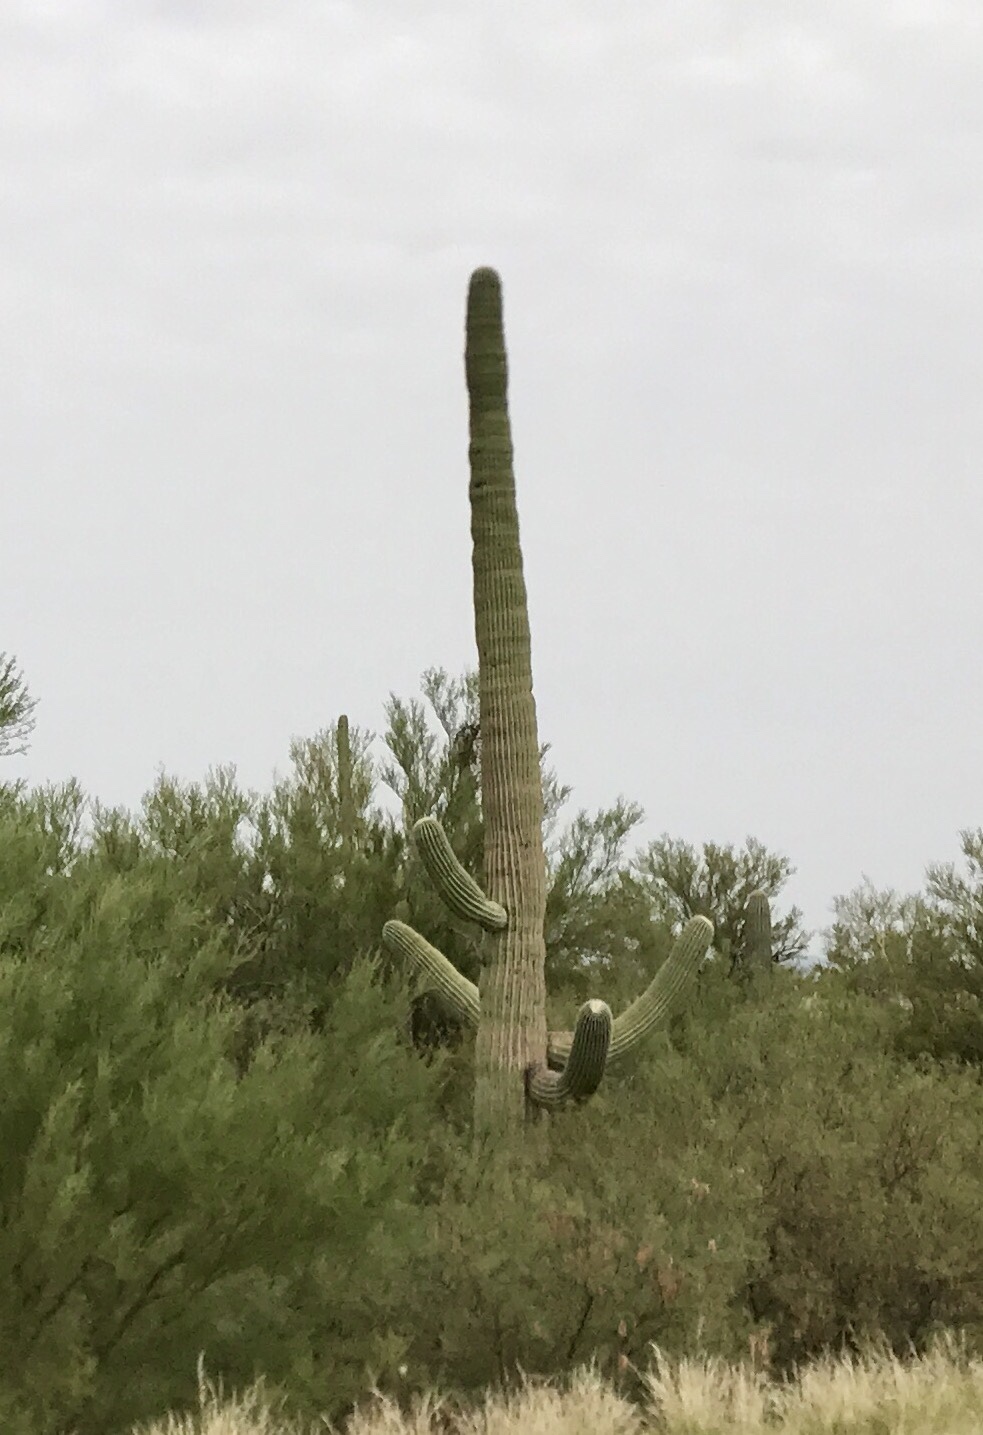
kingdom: Plantae
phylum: Tracheophyta
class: Magnoliopsida
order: Caryophyllales
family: Cactaceae
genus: Carnegiea
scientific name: Carnegiea gigantea
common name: Saguaro
